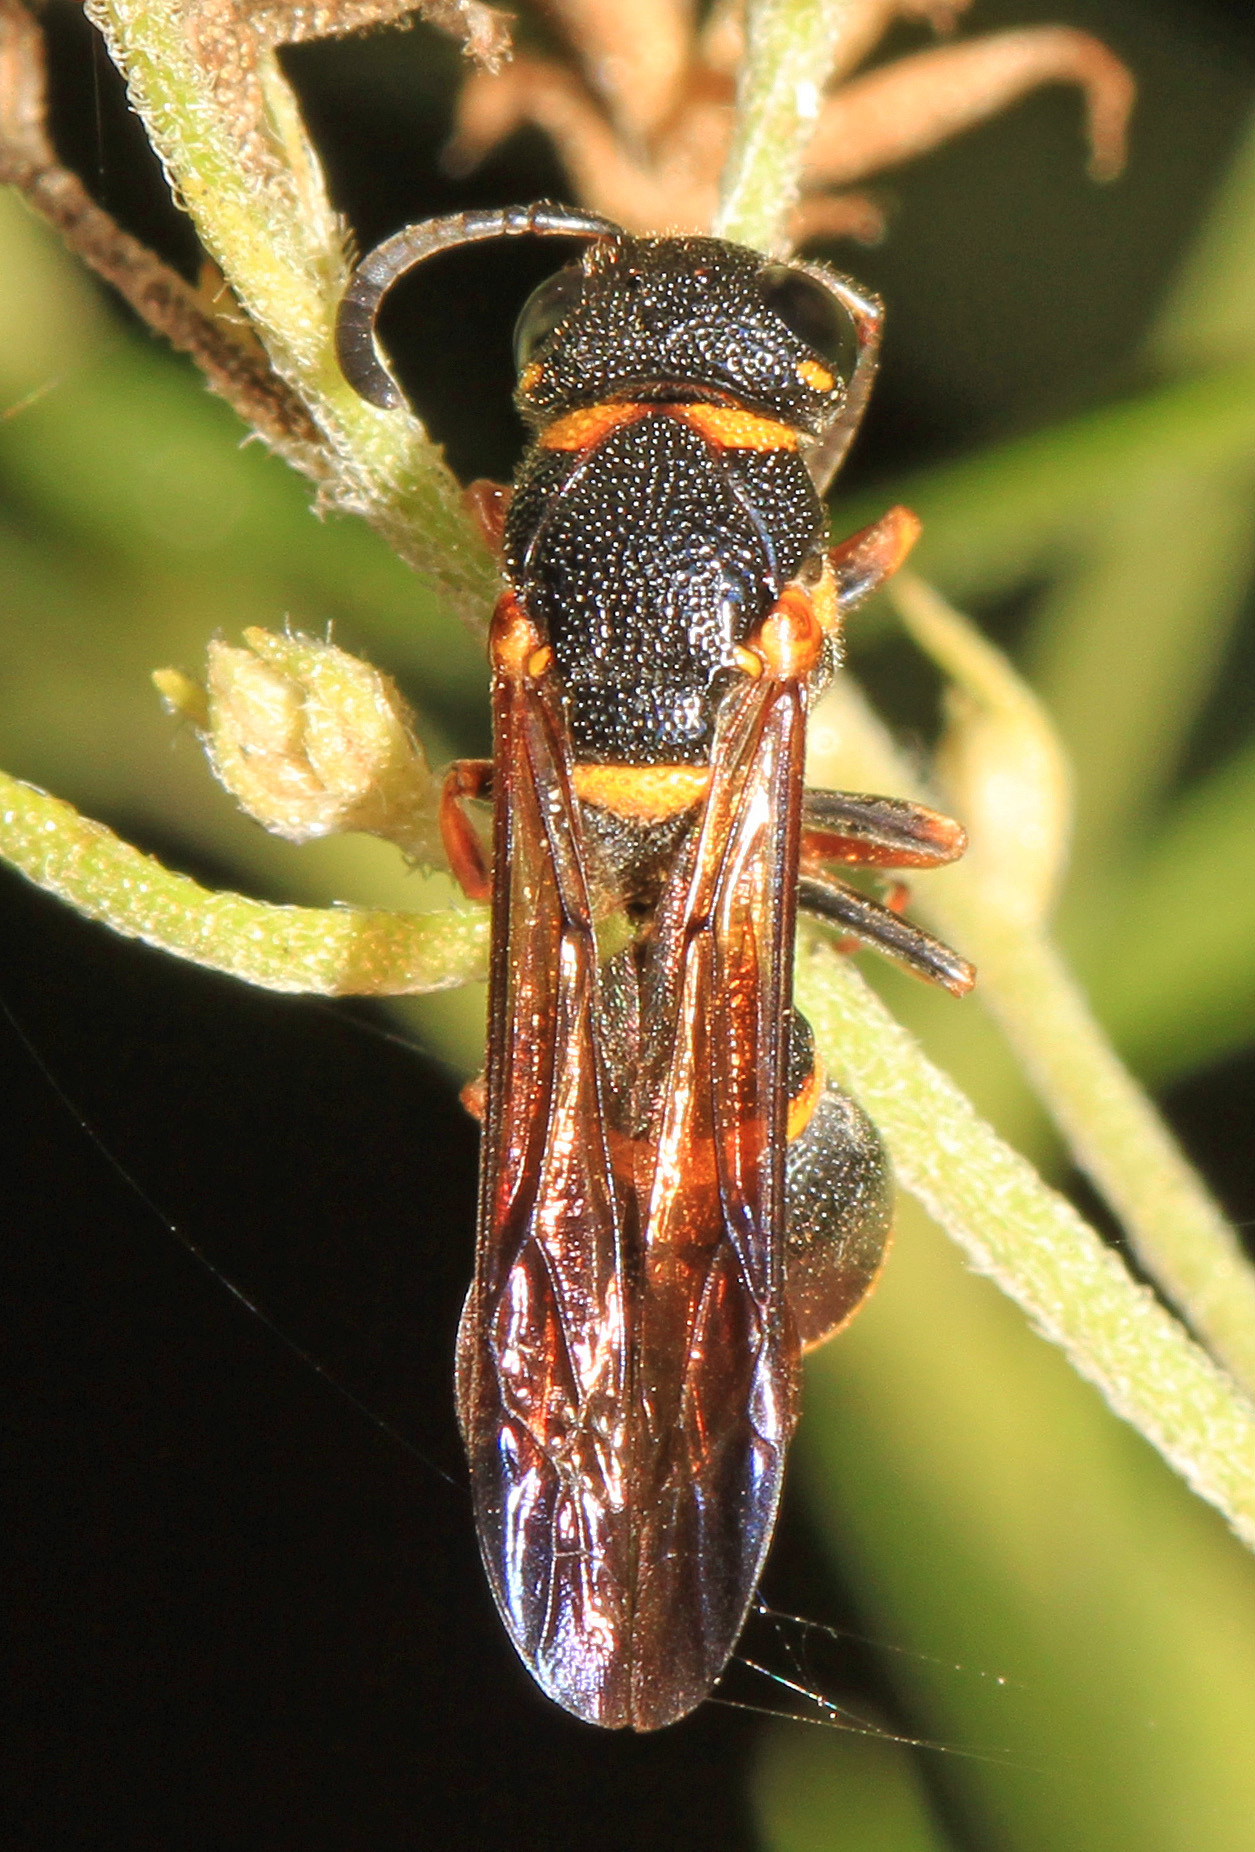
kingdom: Animalia
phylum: Arthropoda
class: Insecta
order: Hymenoptera
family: Eumenidae
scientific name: Eumenidae
